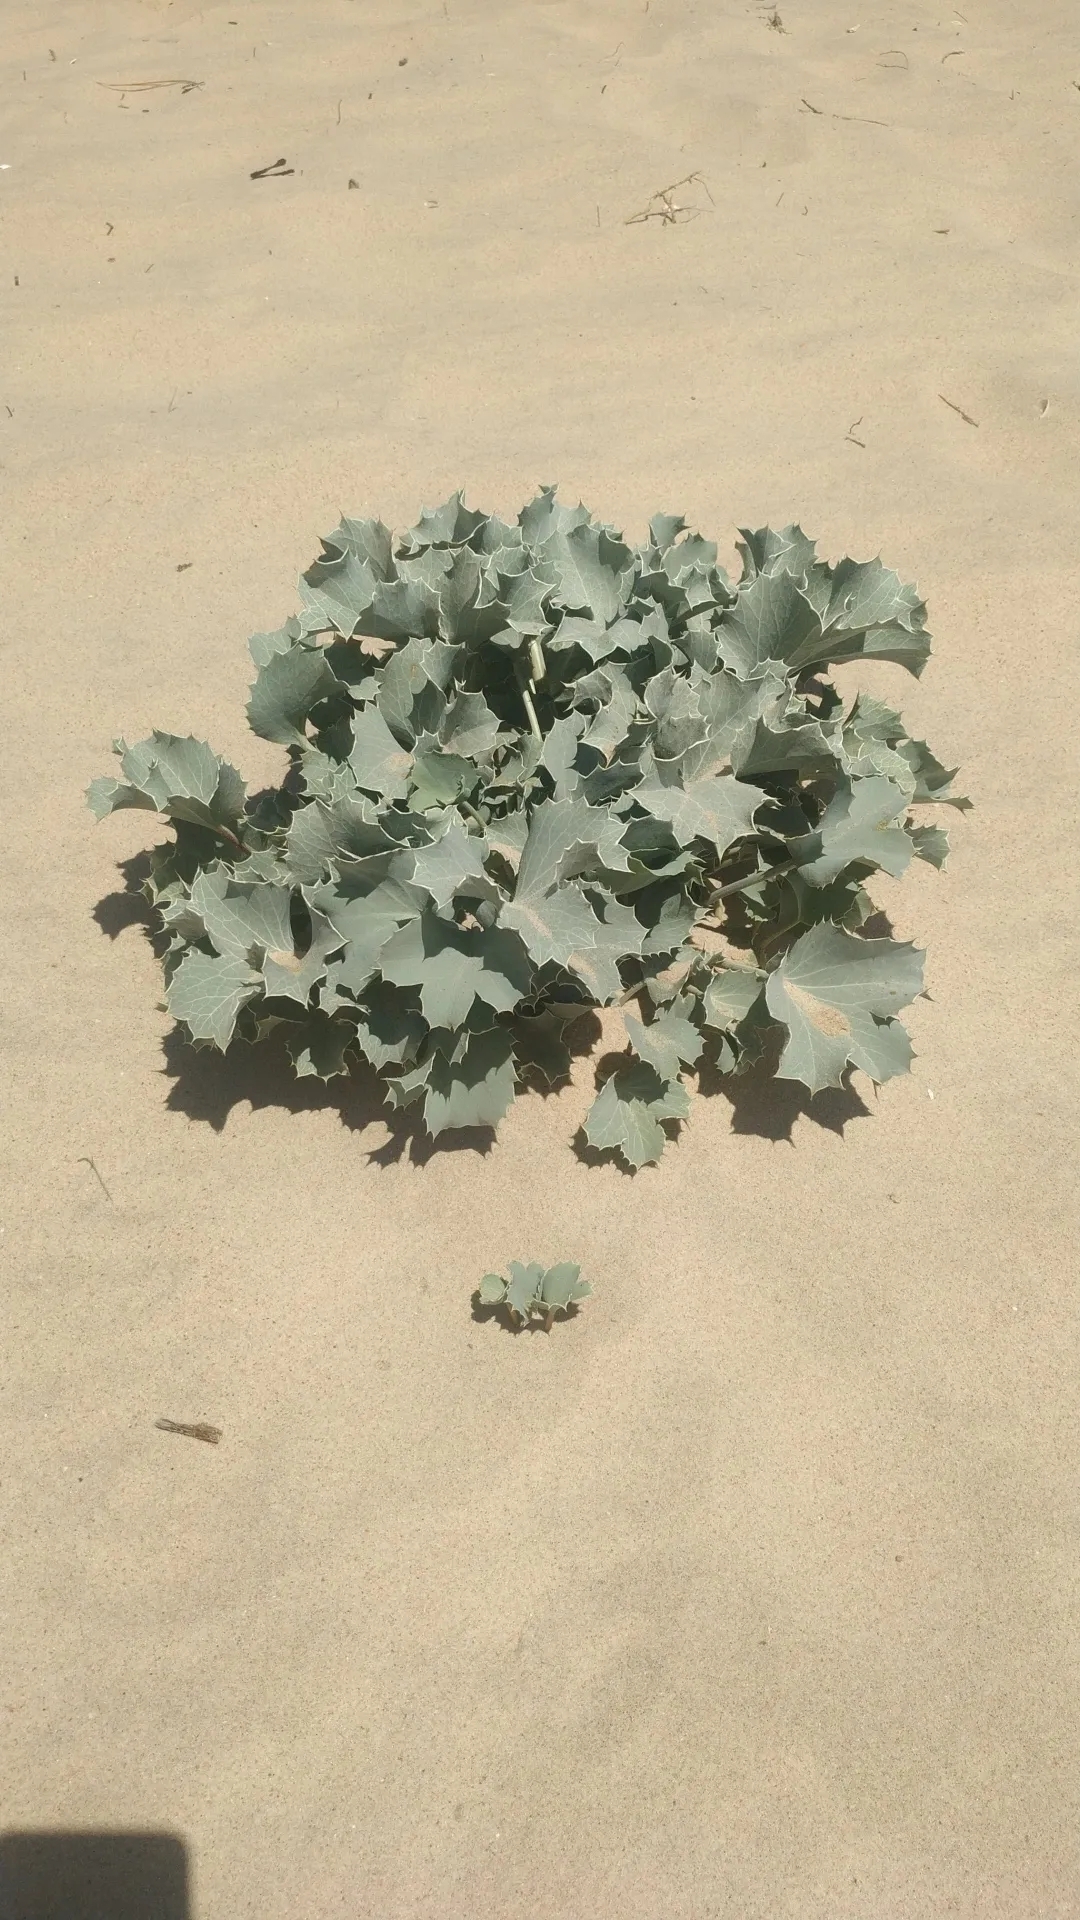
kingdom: Plantae
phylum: Tracheophyta
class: Magnoliopsida
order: Apiales
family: Apiaceae
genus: Eryngium
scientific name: Eryngium maritimum
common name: Sea-holly
